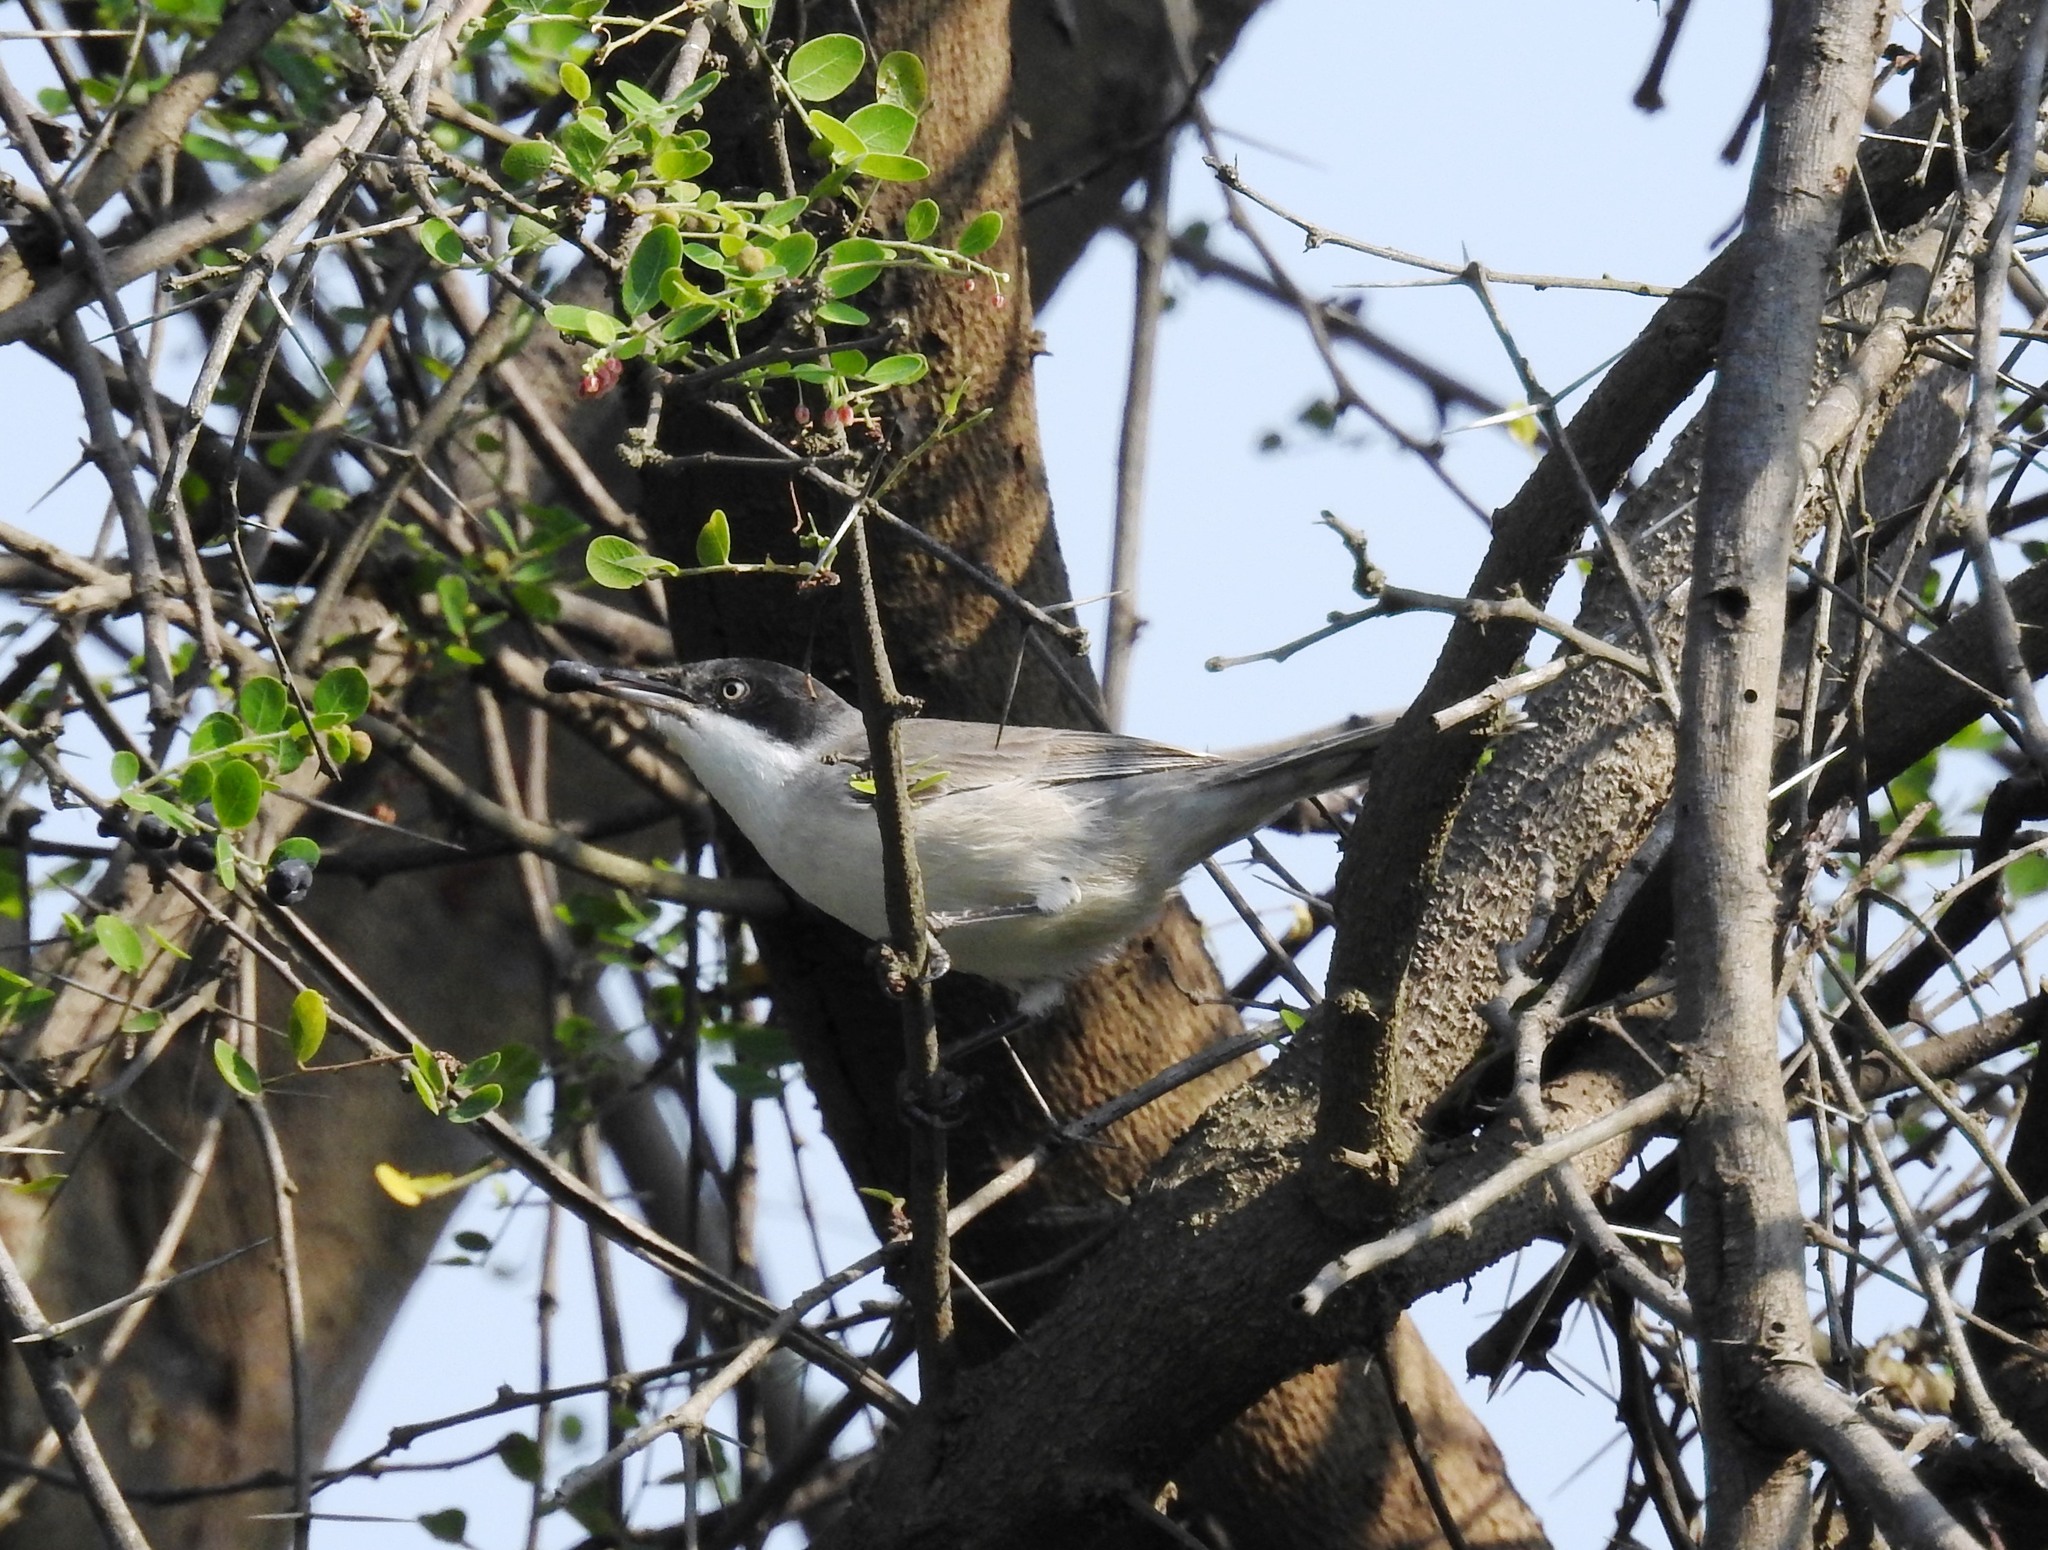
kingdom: Animalia
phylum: Chordata
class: Aves
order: Passeriformes
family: Sylviidae
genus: Sylvia
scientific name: Sylvia crassirostris
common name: Eastern orphean warbler
